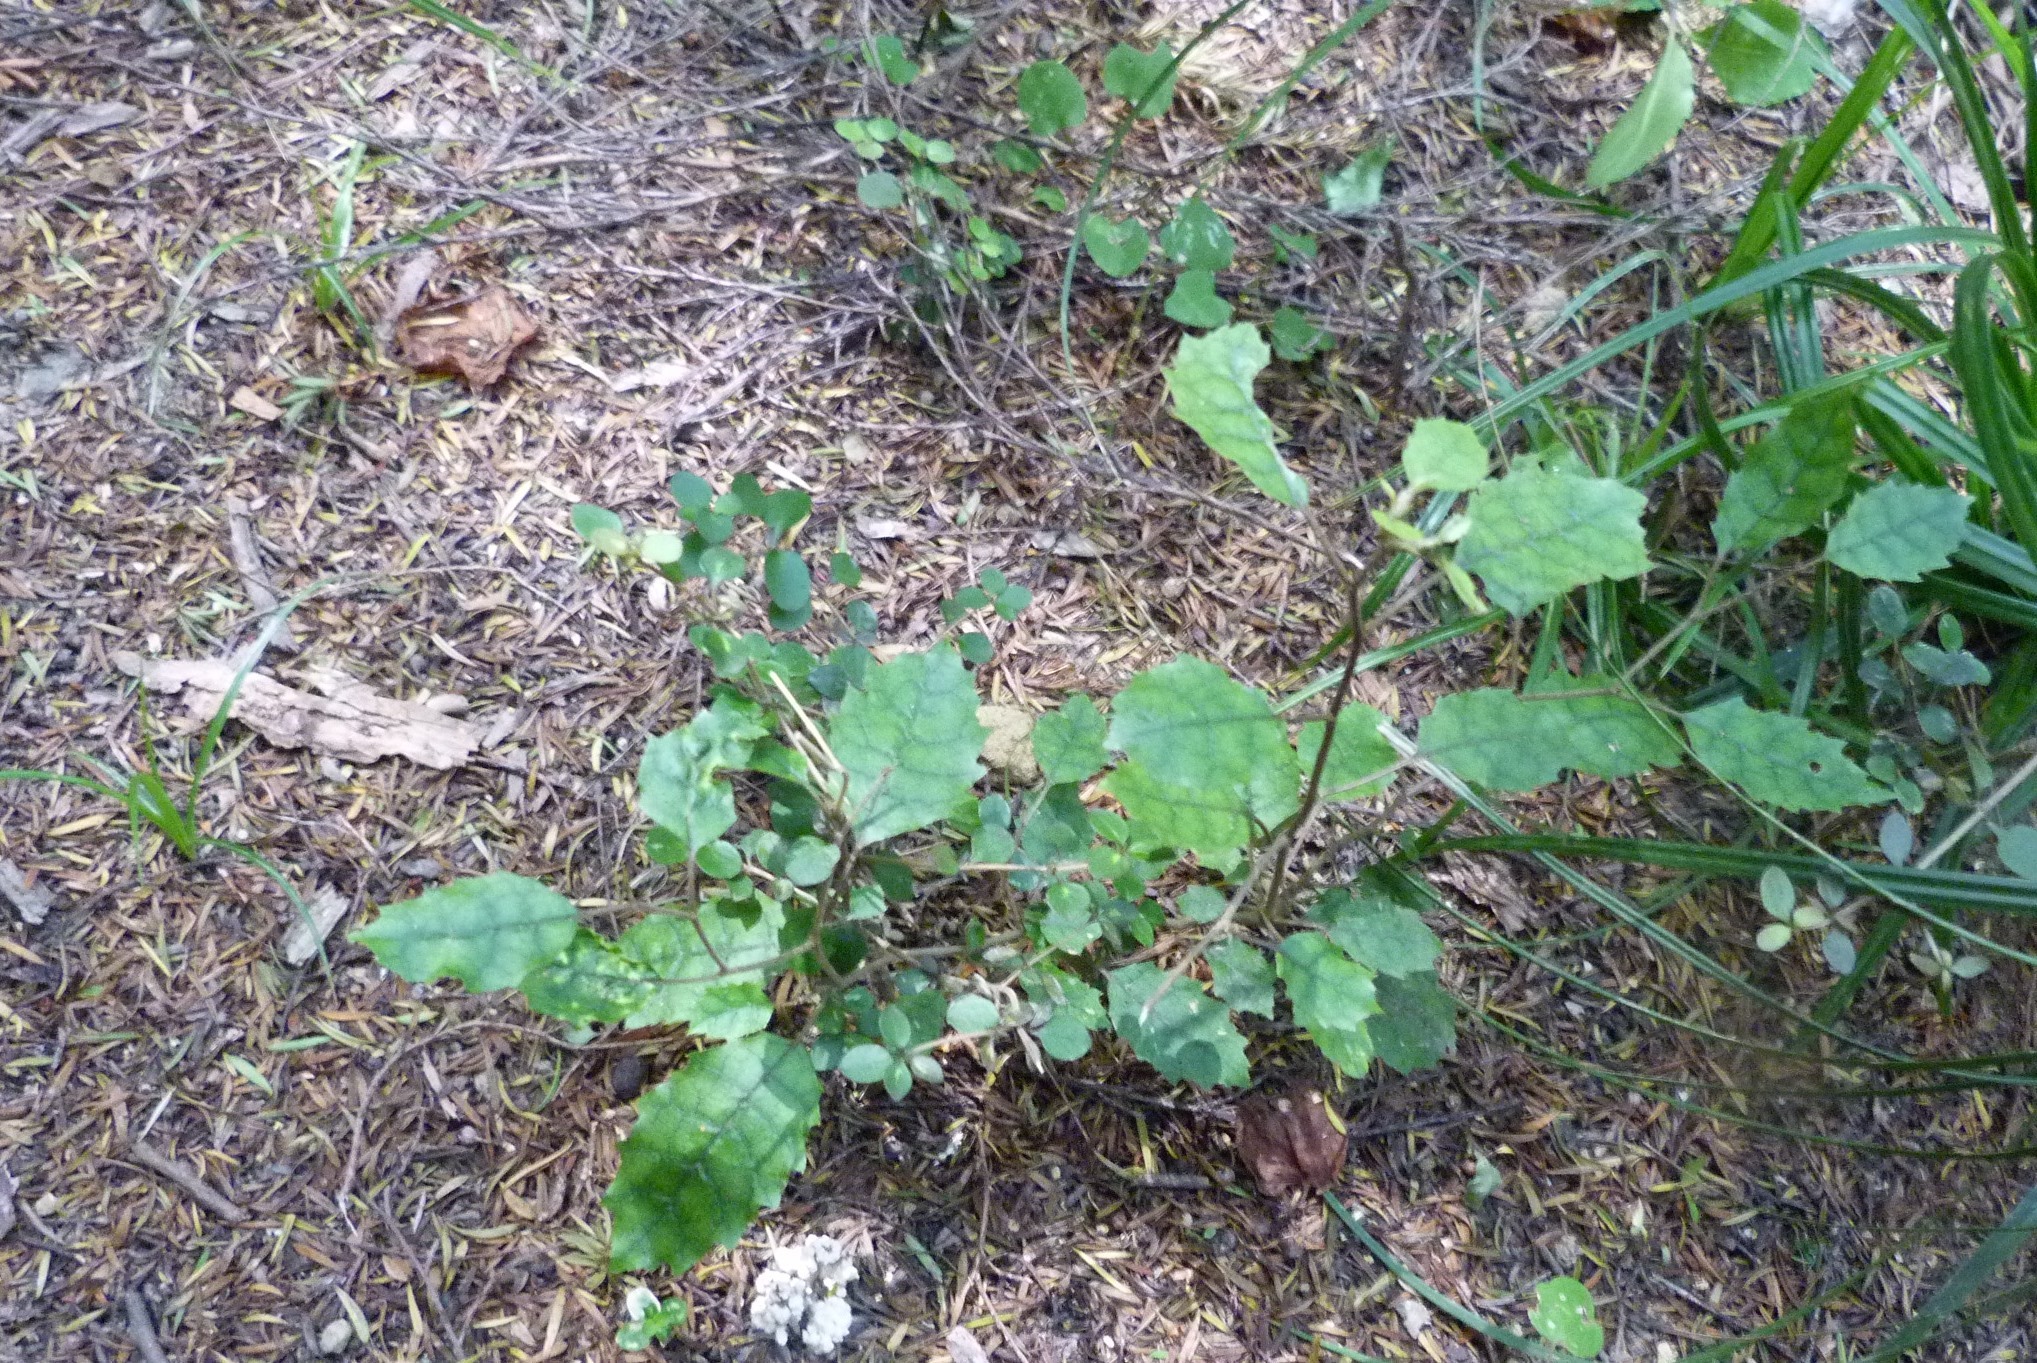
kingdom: Plantae
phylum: Tracheophyta
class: Magnoliopsida
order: Asterales
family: Rousseaceae
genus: Carpodetus
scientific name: Carpodetus serratus
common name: White mapau
